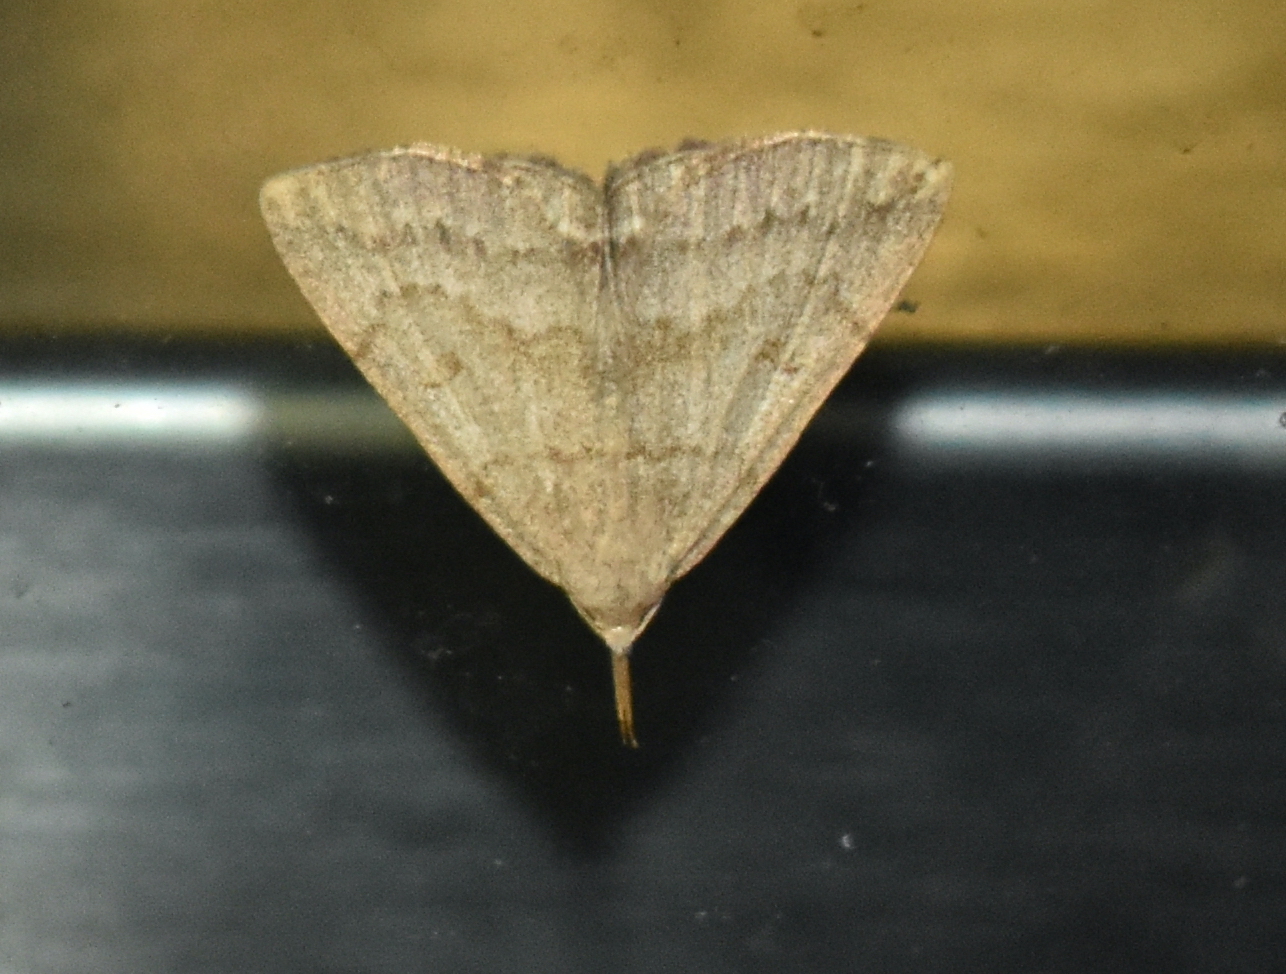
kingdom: Animalia
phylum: Arthropoda
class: Insecta
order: Lepidoptera
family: Erebidae
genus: Macrochilo
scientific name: Macrochilo morbidalis
